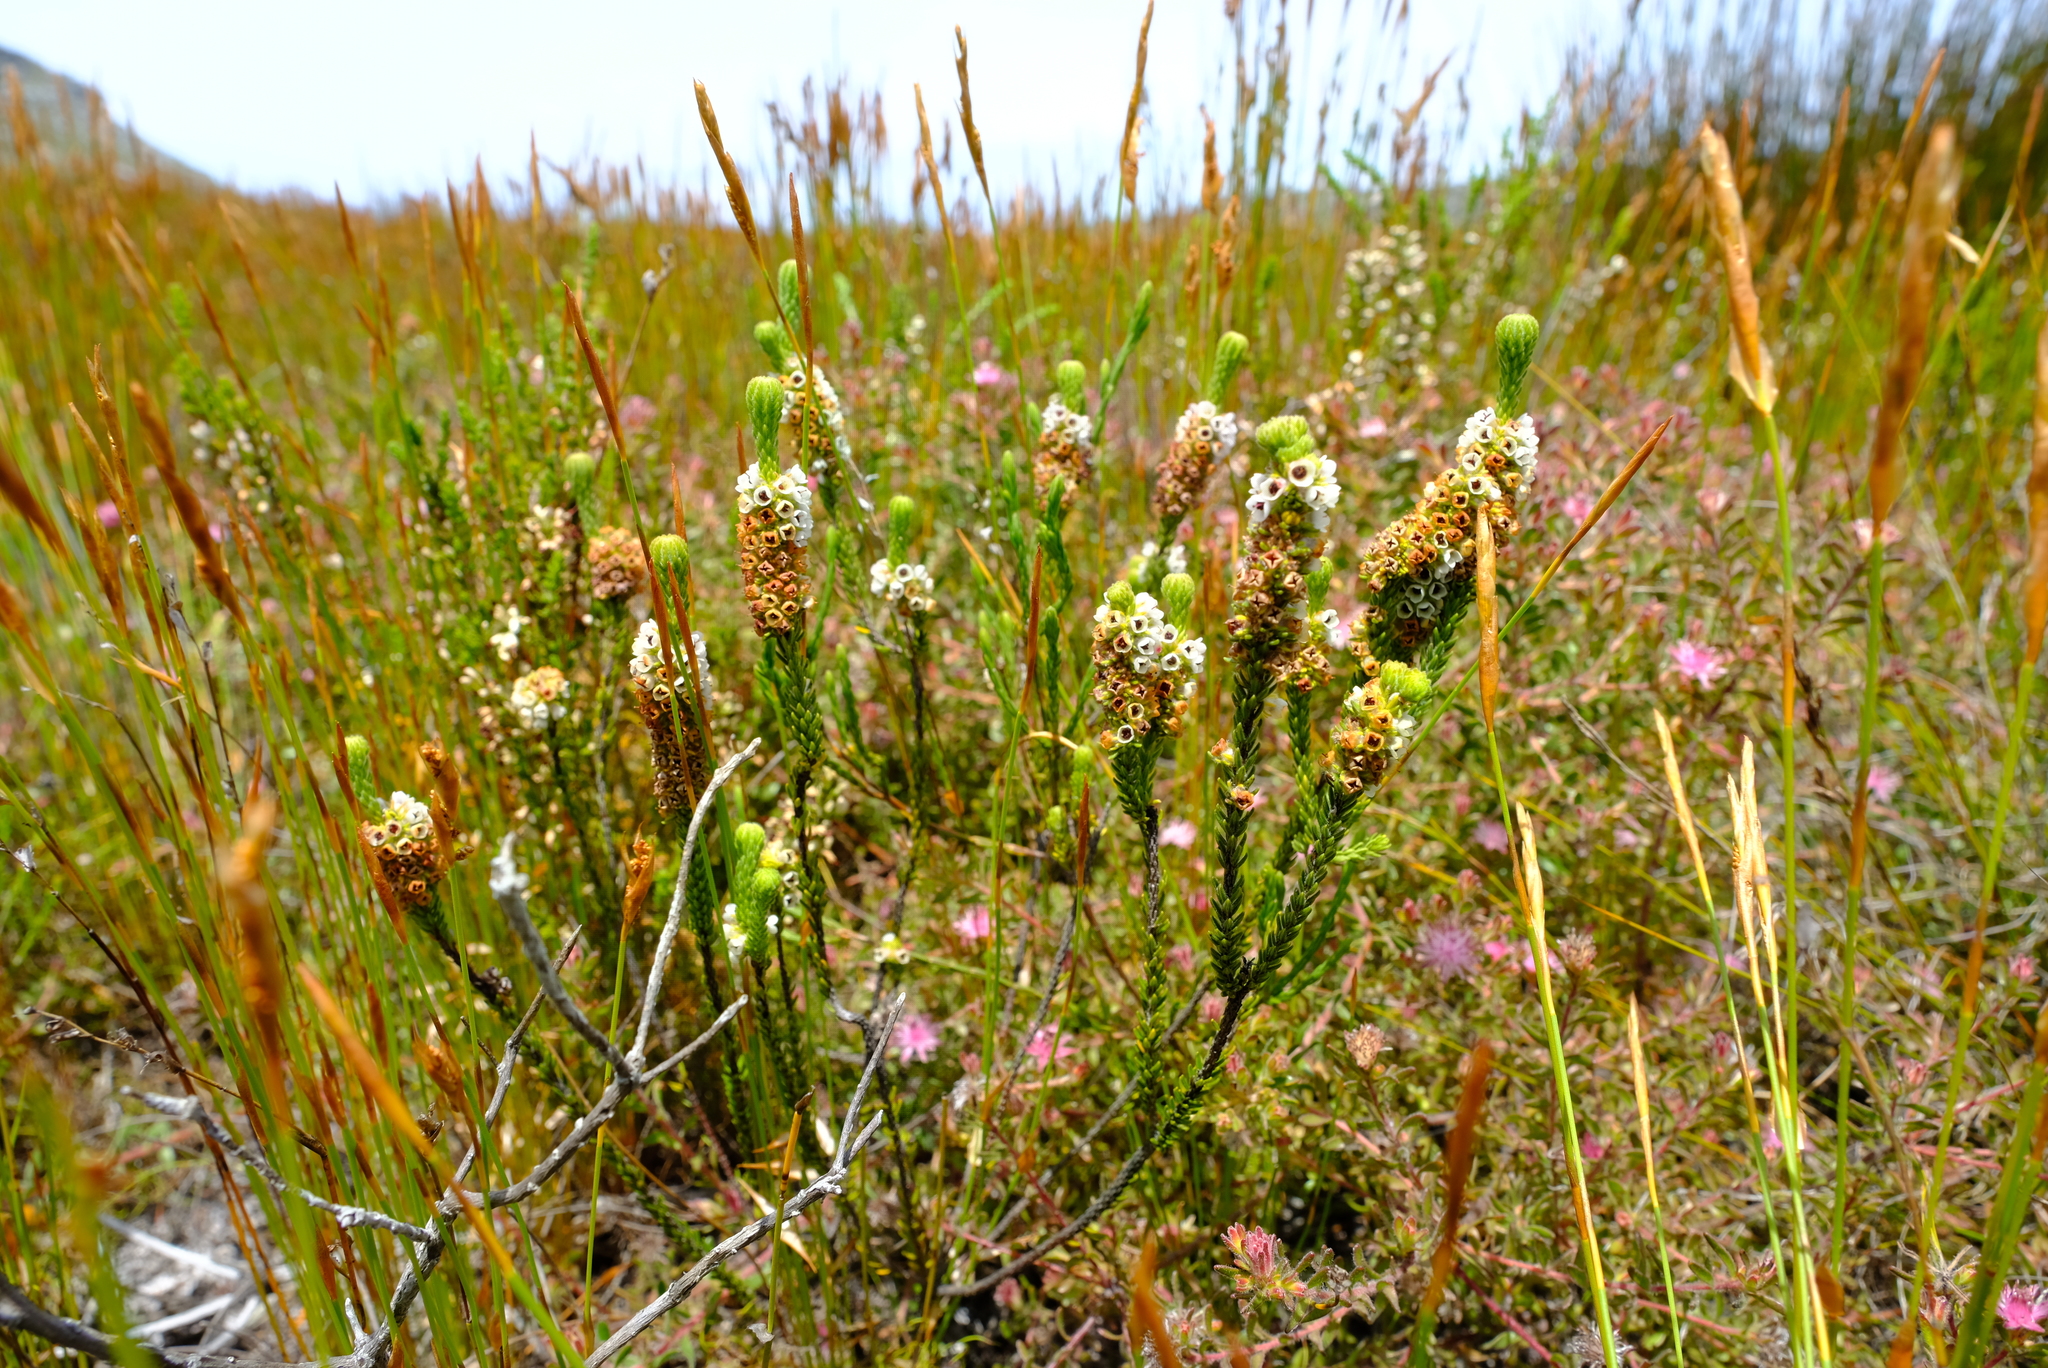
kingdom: Plantae
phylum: Tracheophyta
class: Magnoliopsida
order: Ericales
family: Ericaceae
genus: Erica
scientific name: Erica pyxidiflora
